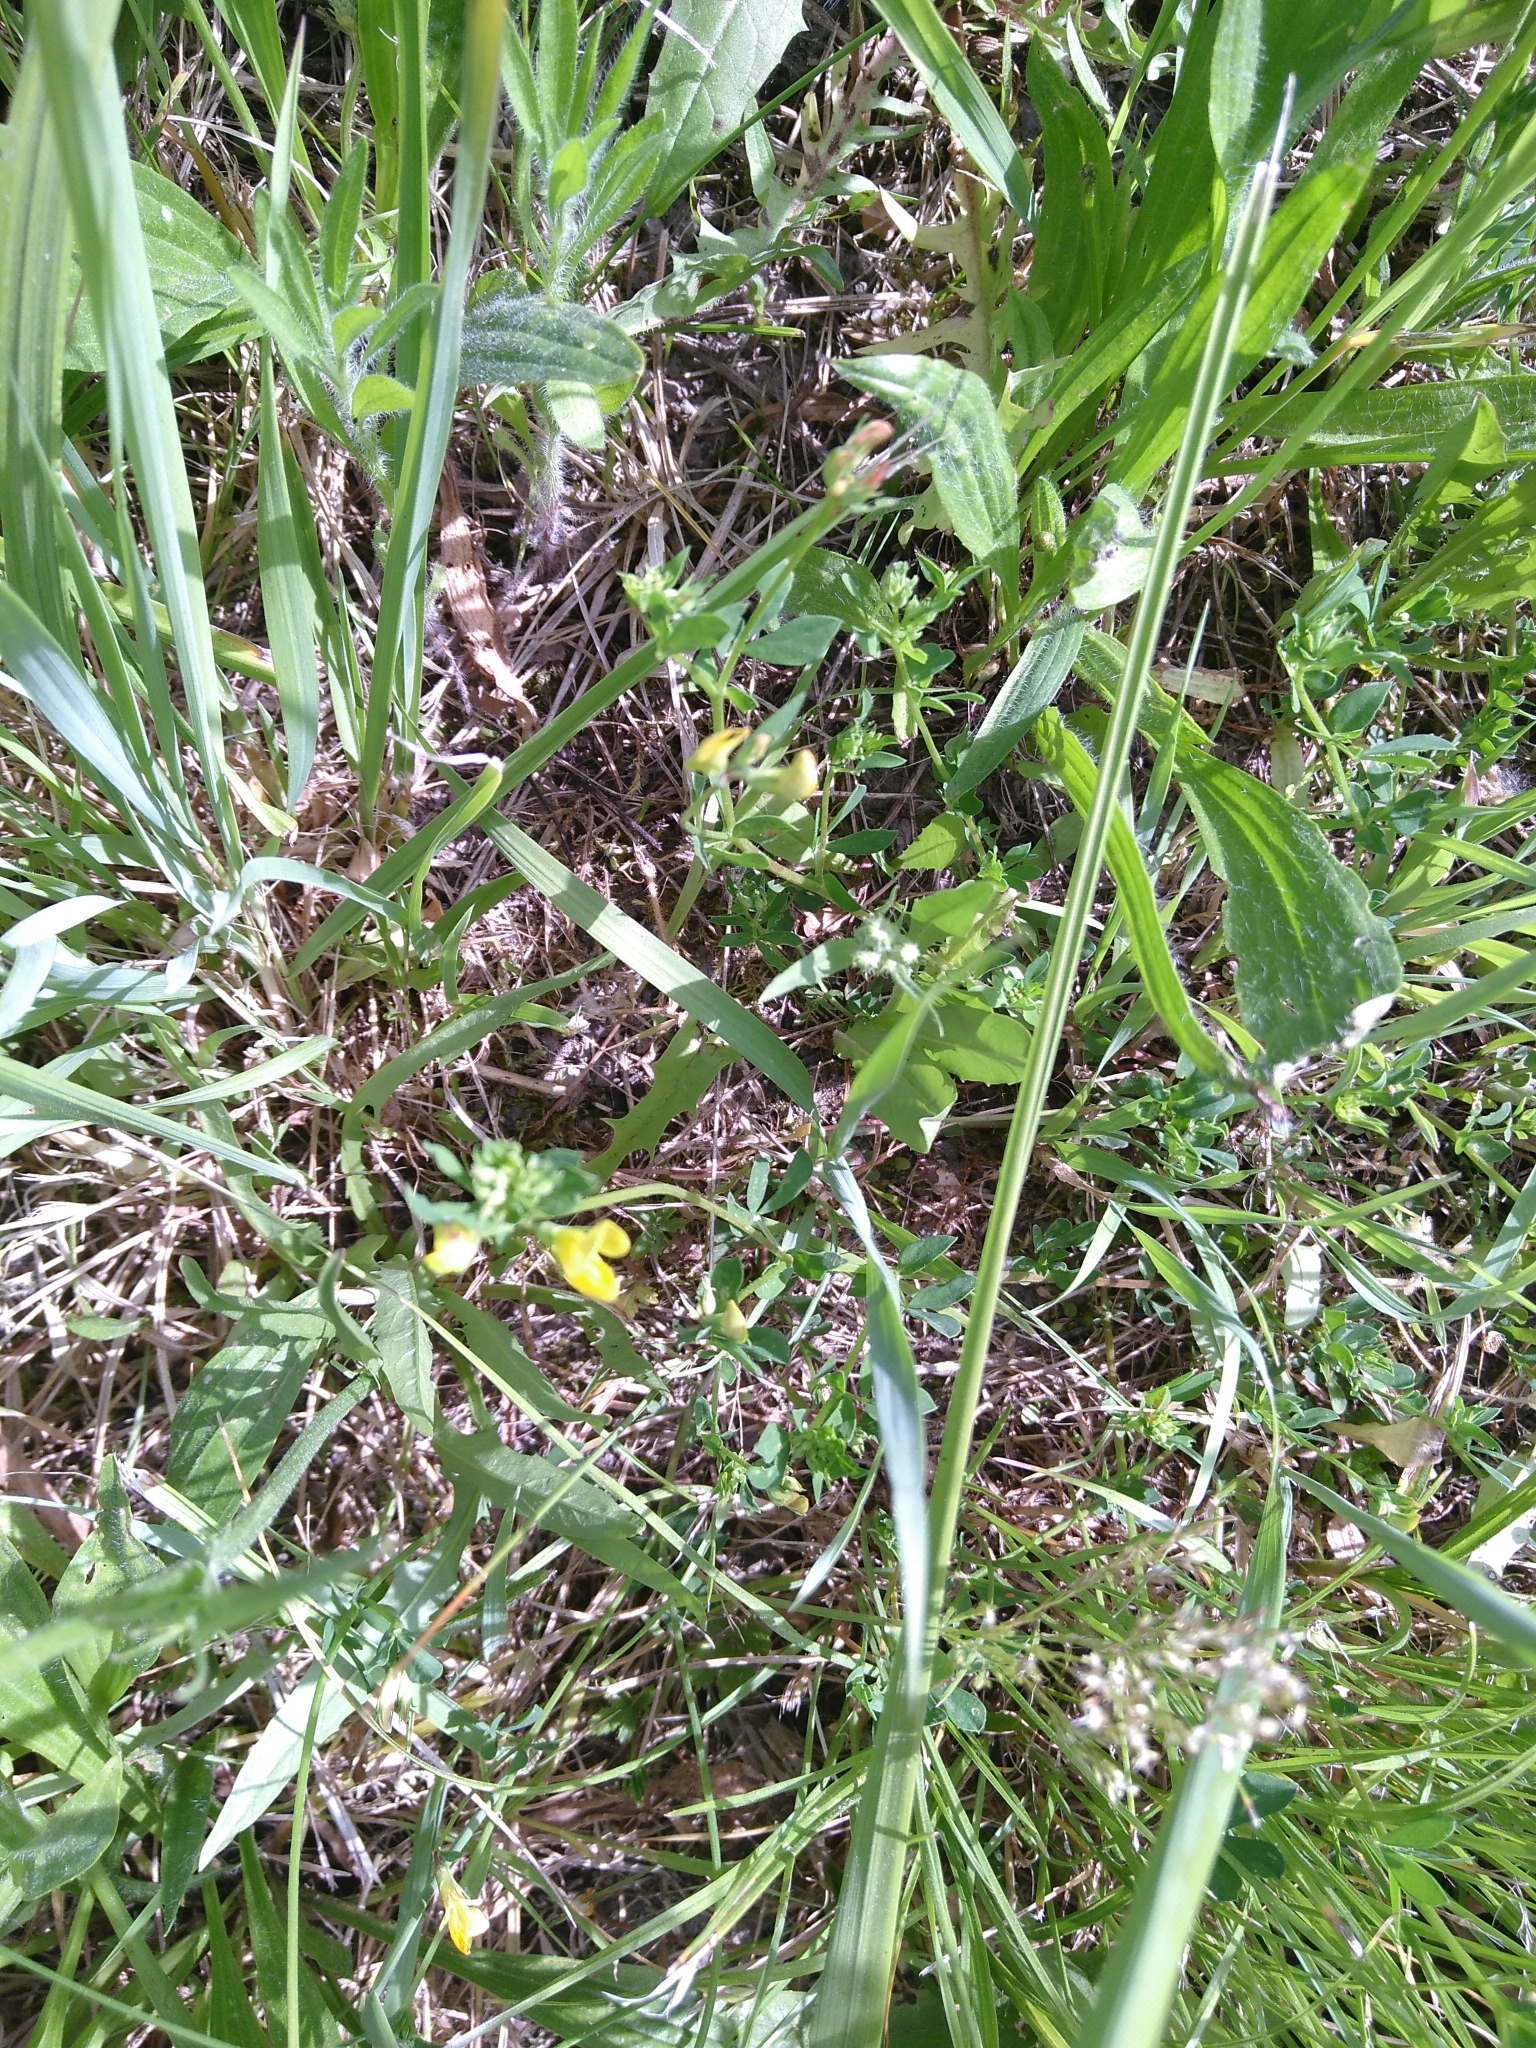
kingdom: Plantae
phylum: Tracheophyta
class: Magnoliopsida
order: Fabales
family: Fabaceae
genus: Lotus
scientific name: Lotus corniculatus
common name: Common bird's-foot-trefoil
